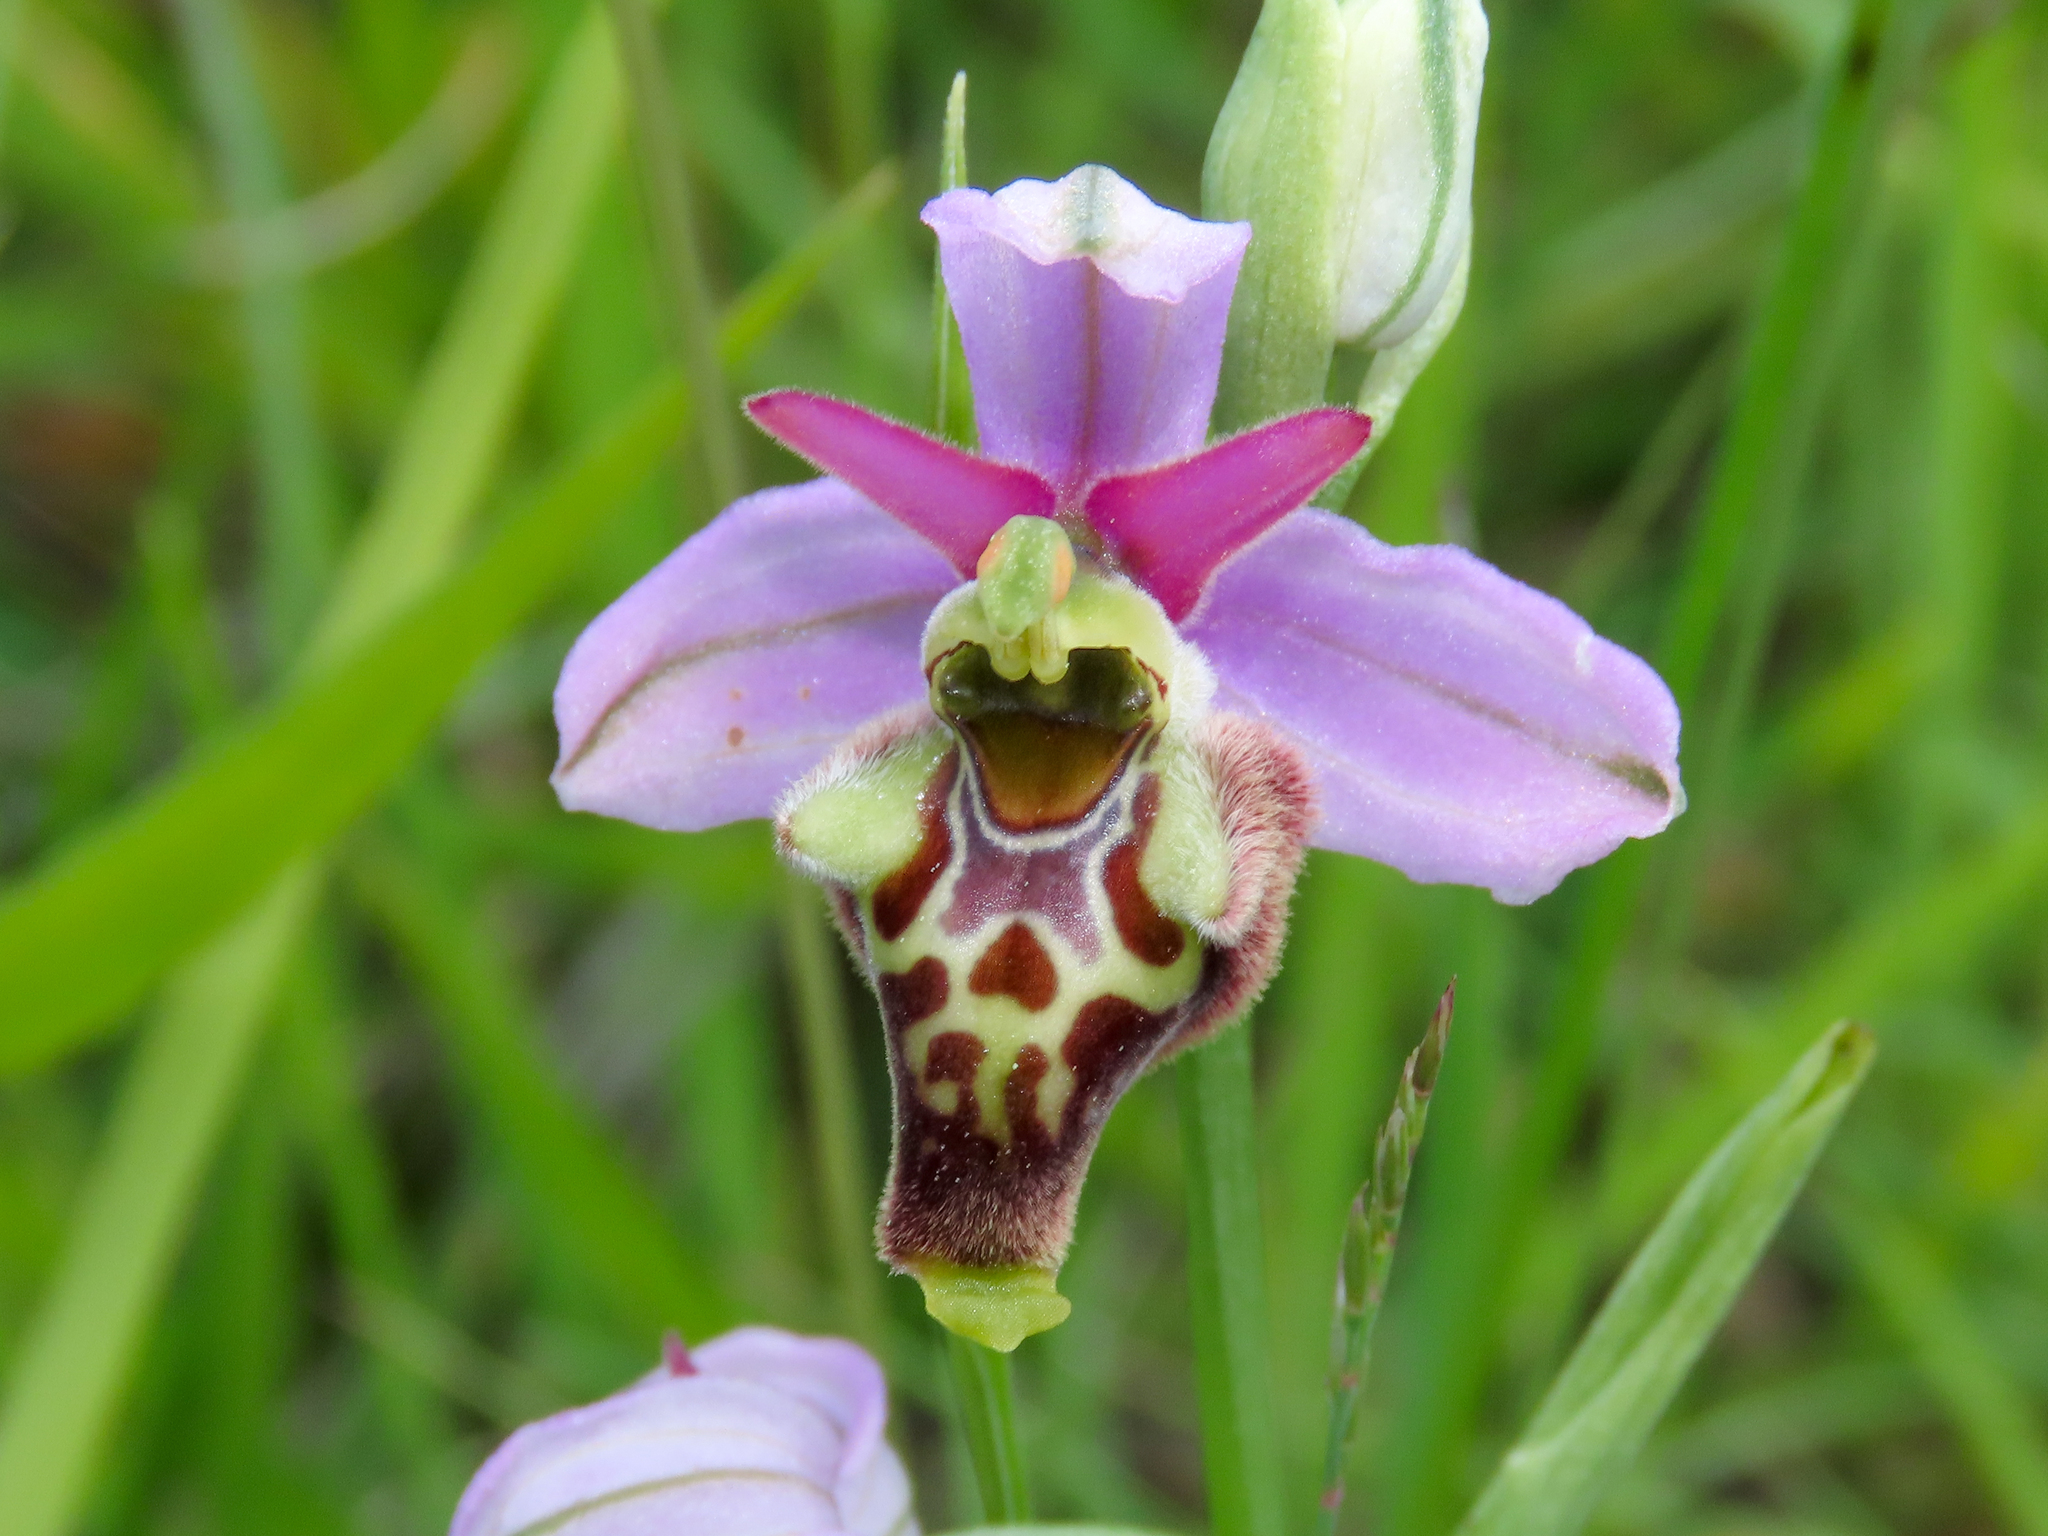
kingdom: Plantae
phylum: Tracheophyta
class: Liliopsida
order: Asparagales
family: Orchidaceae
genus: Ophrys
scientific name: Ophrys holosericea
